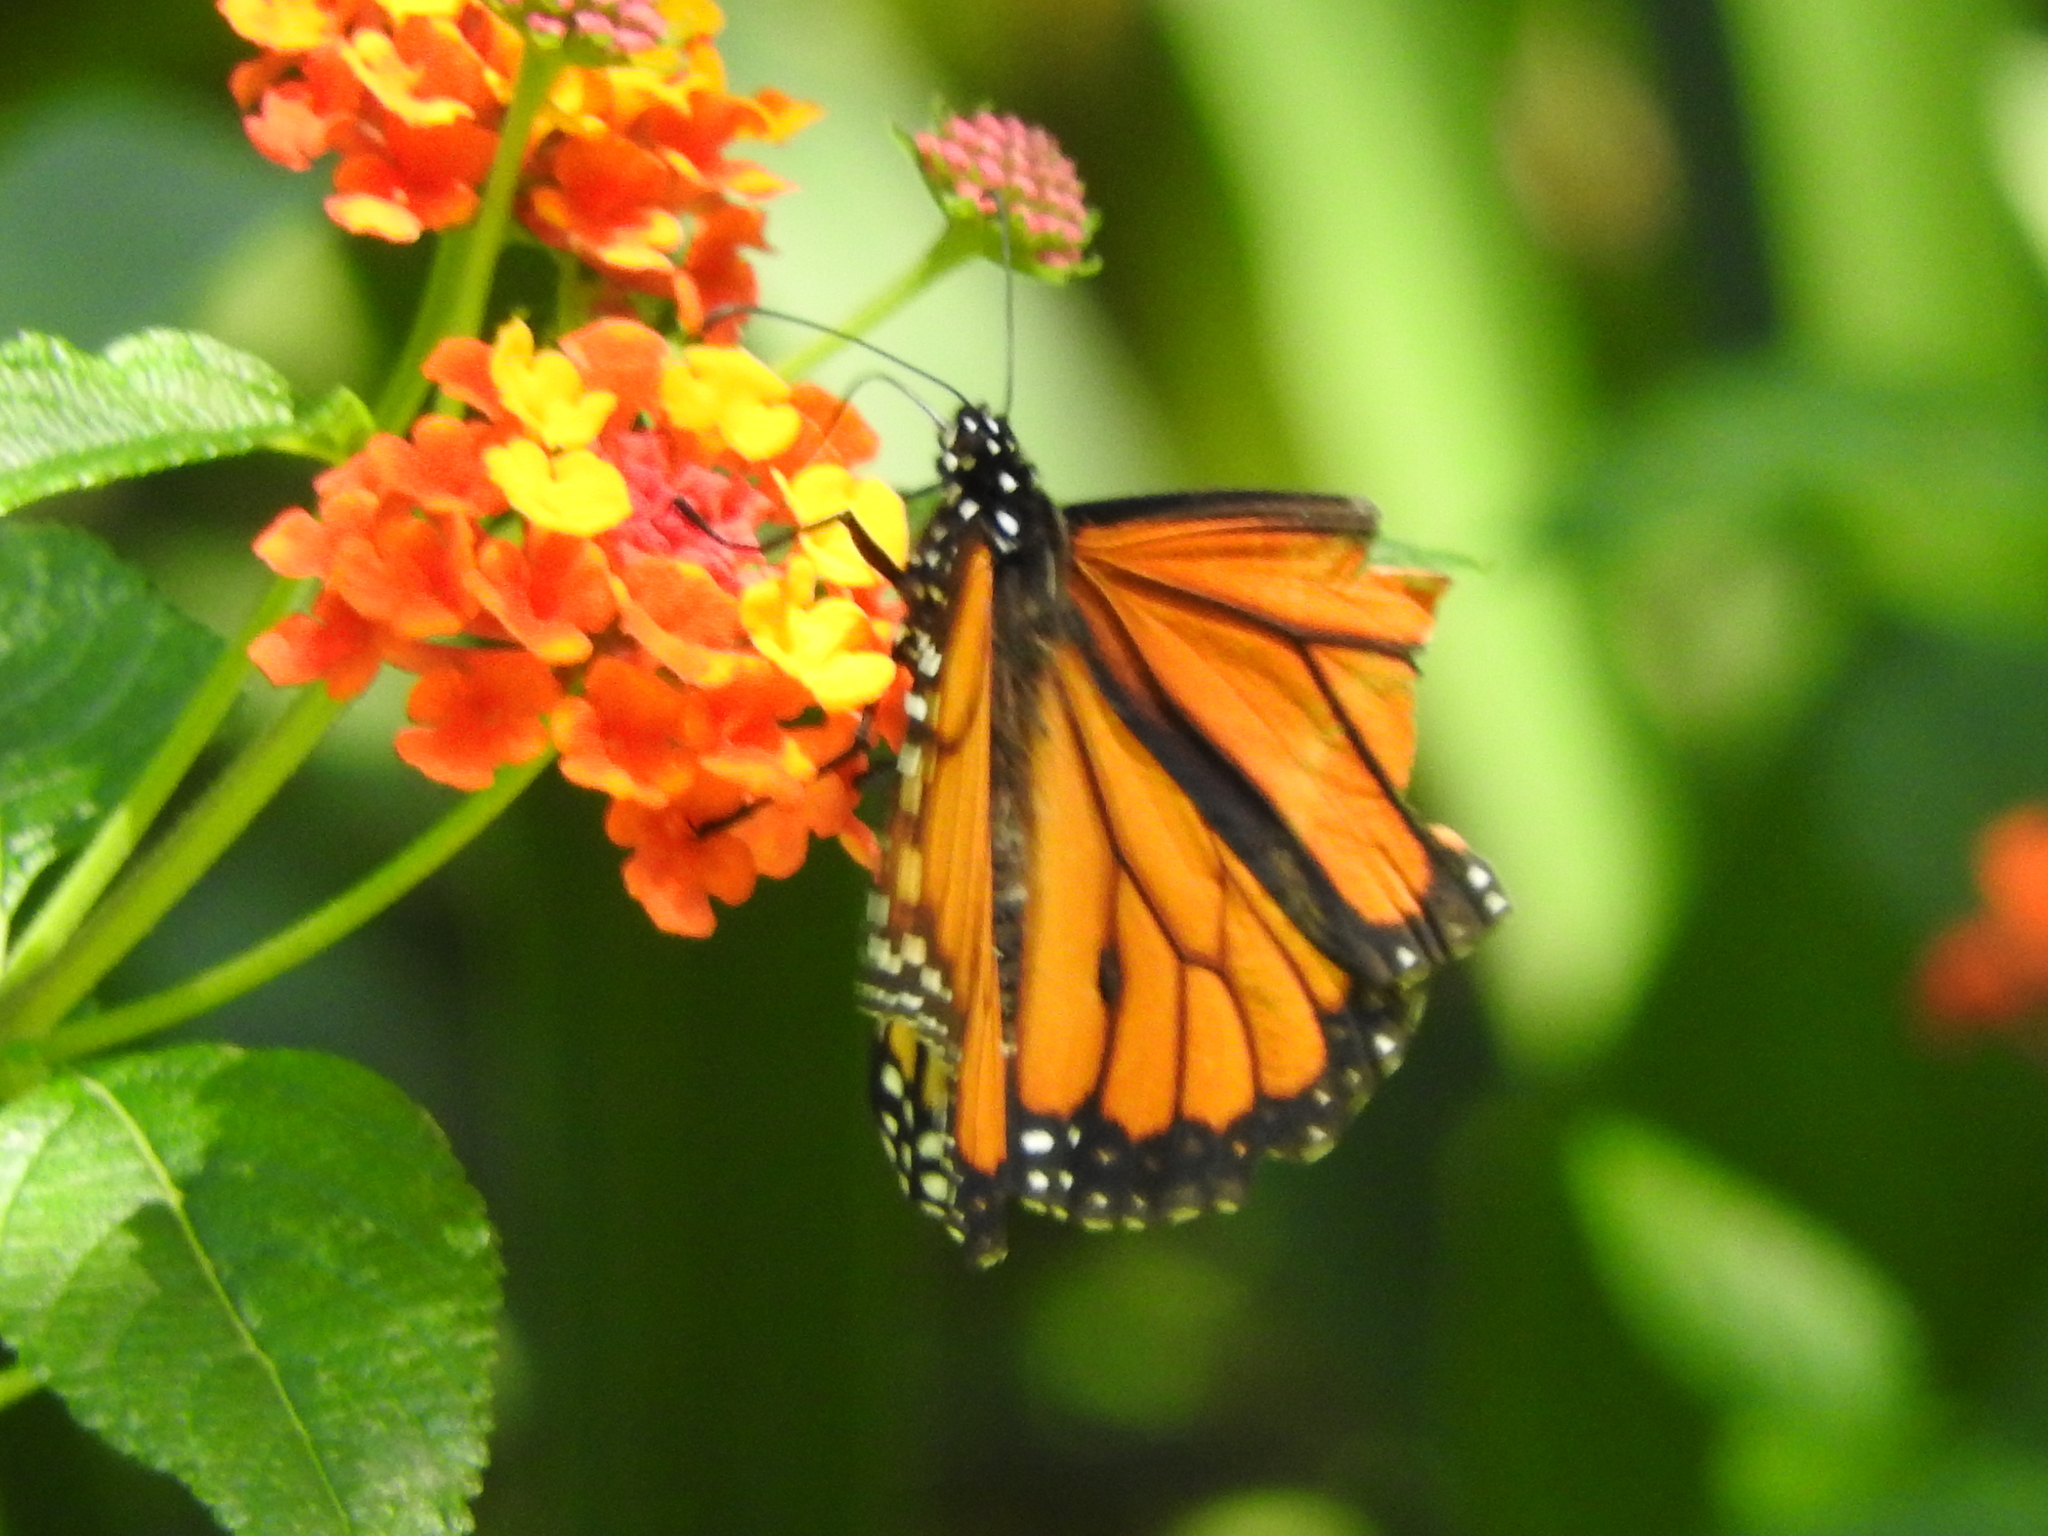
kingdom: Animalia
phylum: Arthropoda
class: Insecta
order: Lepidoptera
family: Nymphalidae
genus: Danaus
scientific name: Danaus plexippus
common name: Monarch
